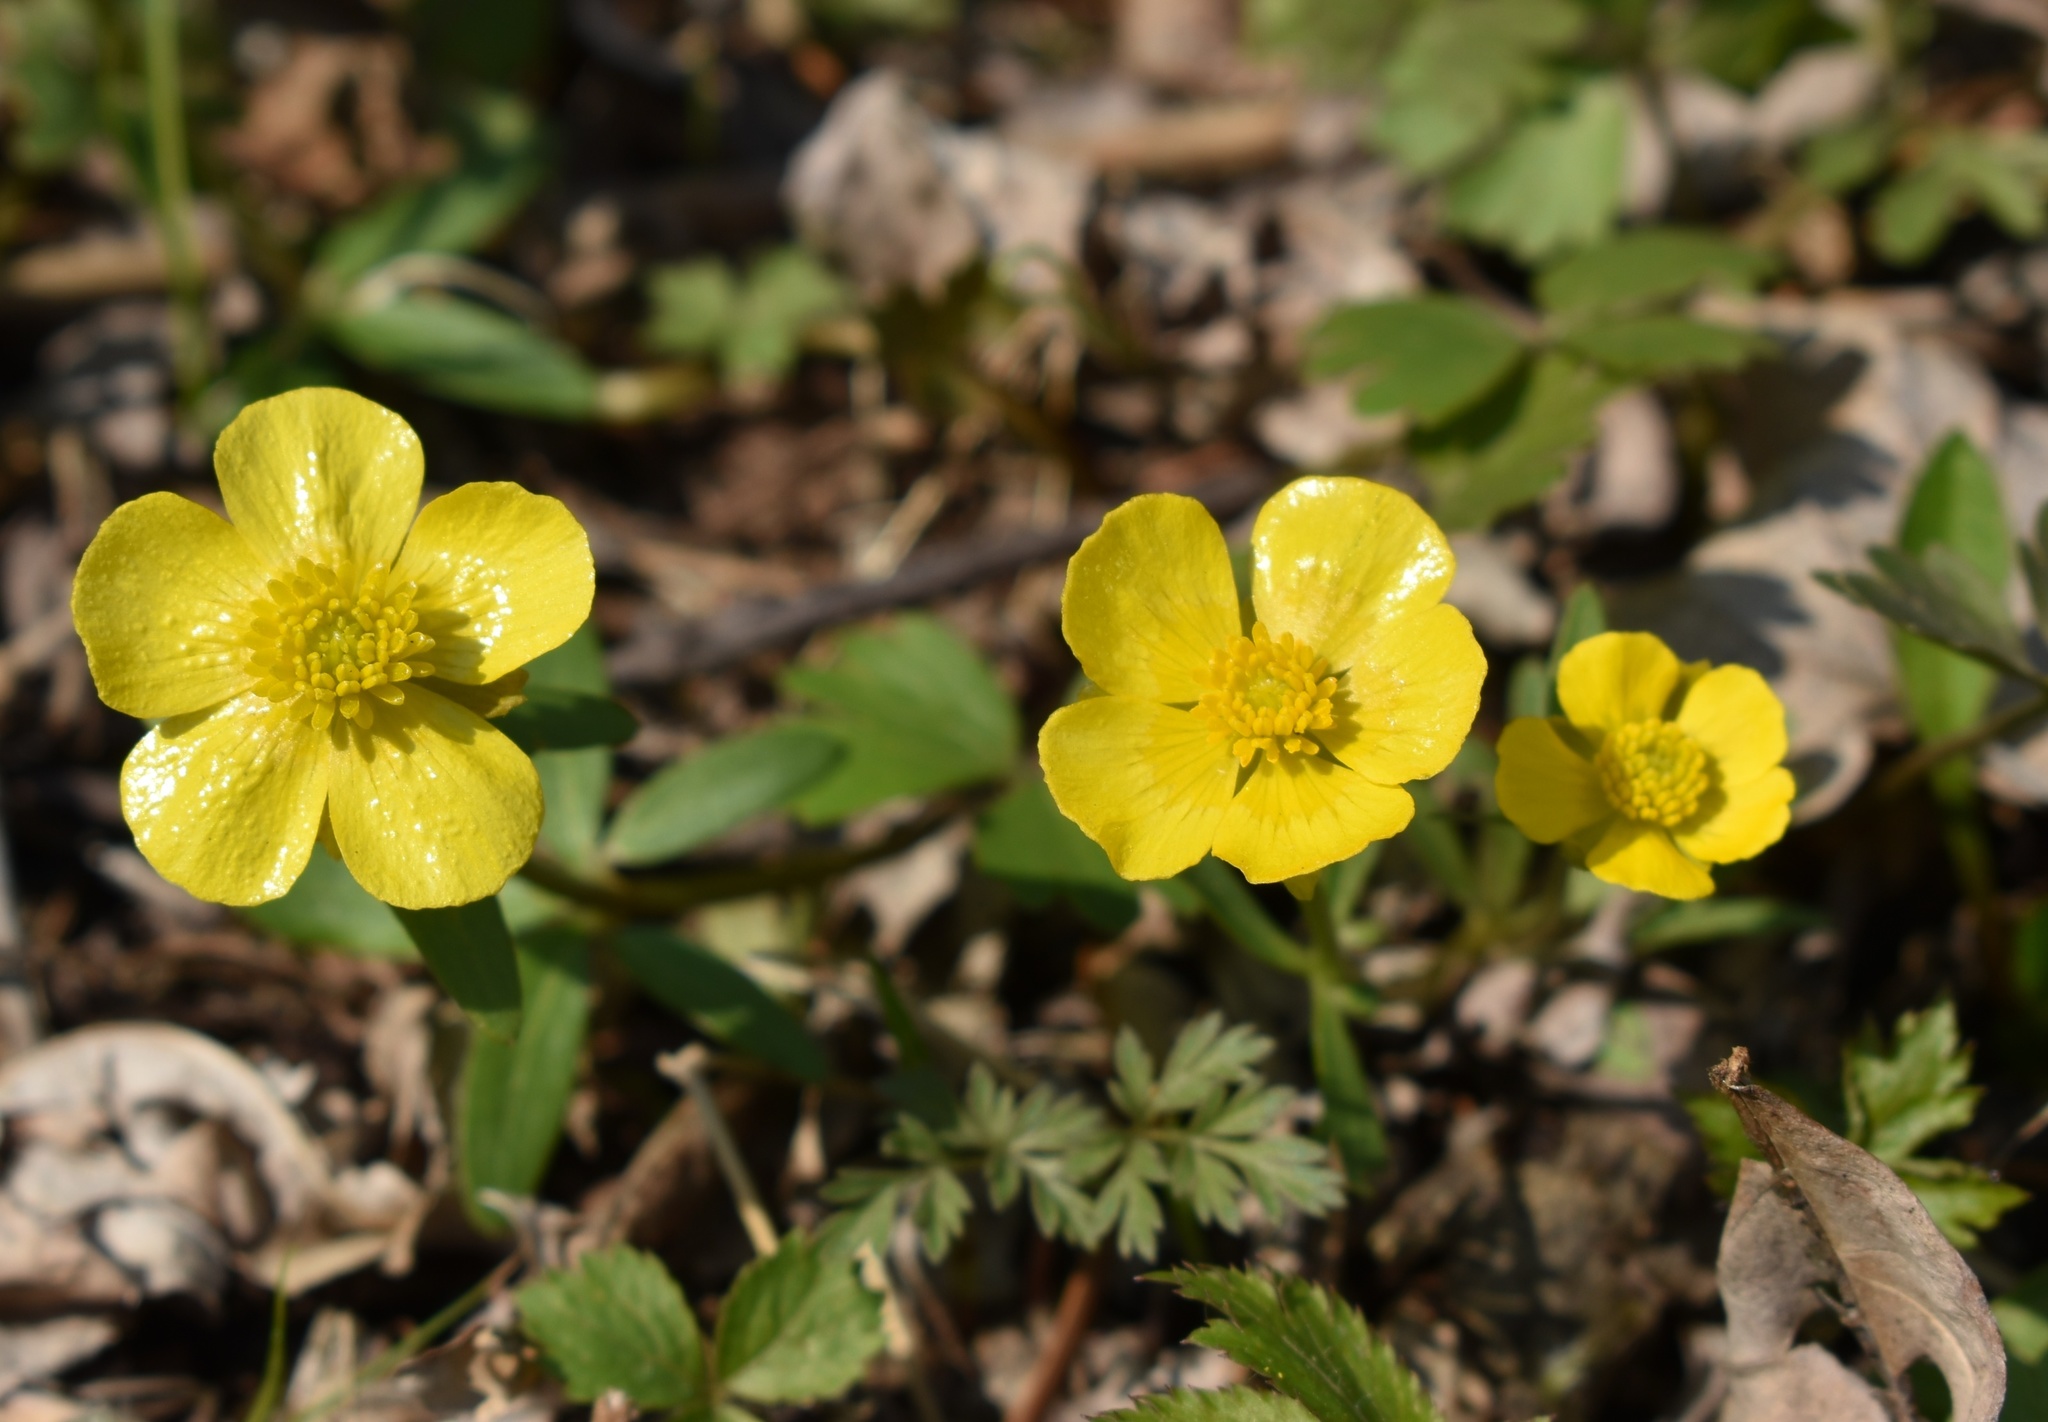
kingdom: Plantae
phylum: Tracheophyta
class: Magnoliopsida
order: Ranunculales
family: Ranunculaceae
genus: Ranunculus
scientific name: Ranunculus franchetii
